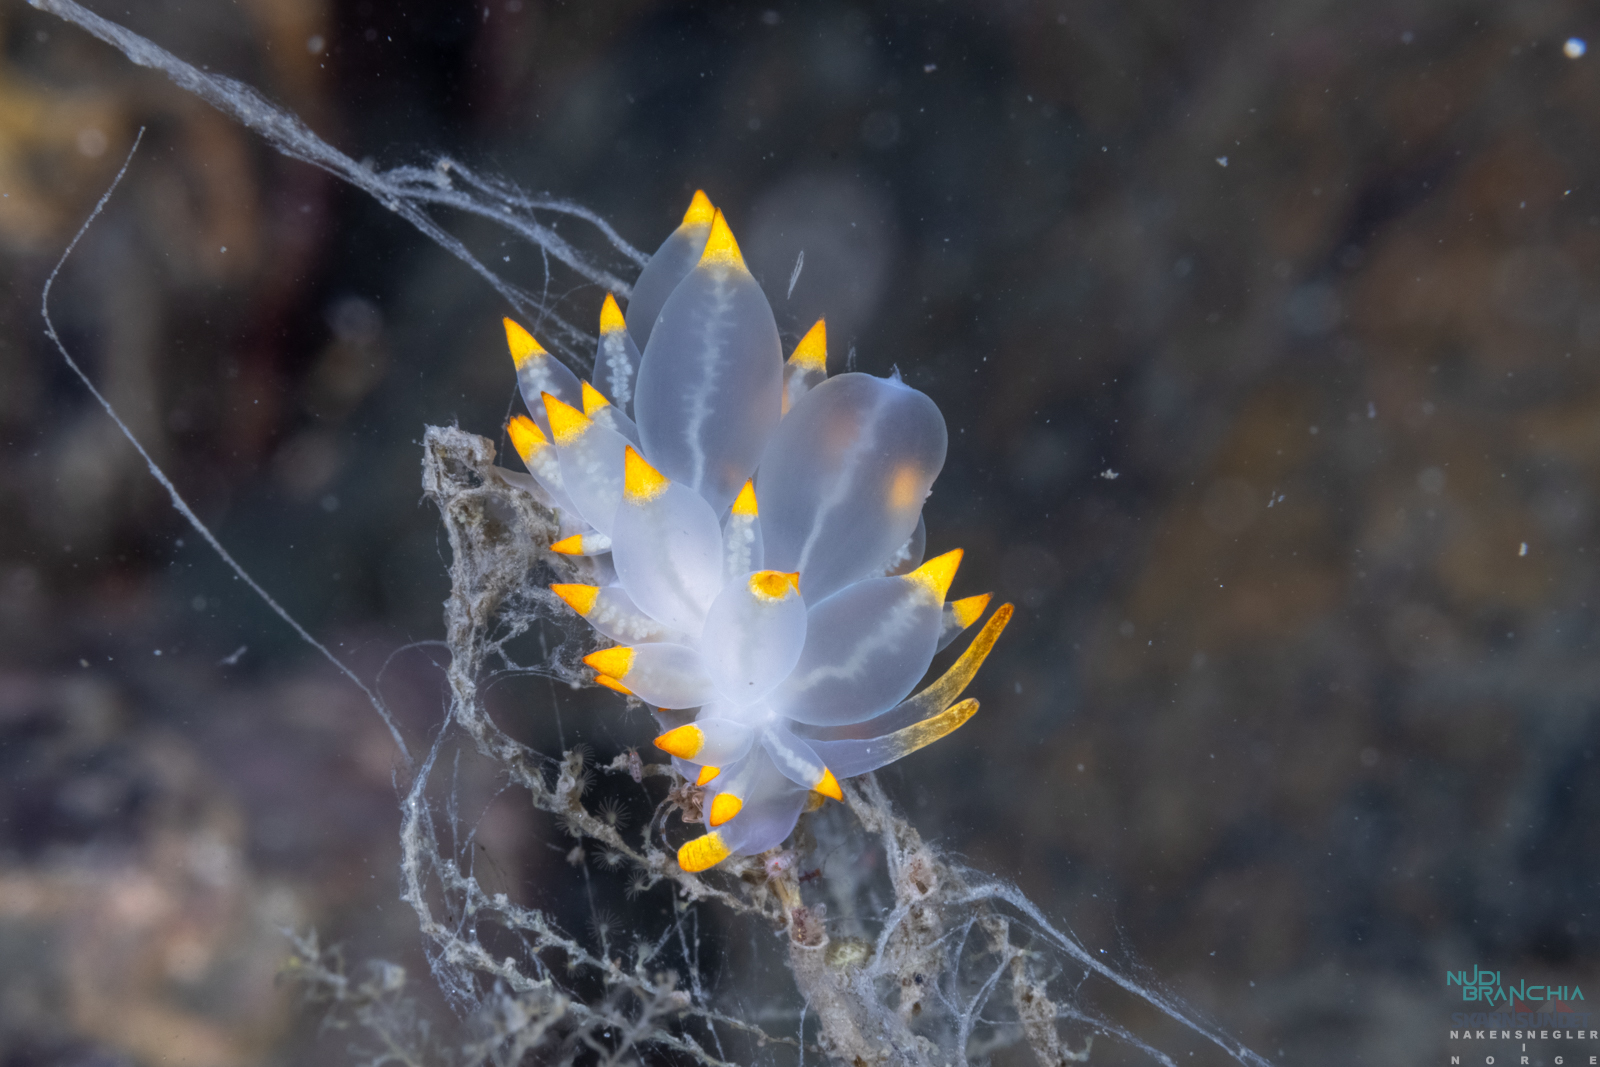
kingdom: Animalia
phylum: Mollusca
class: Gastropoda
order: Nudibranchia
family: Eubranchidae
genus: Amphorina
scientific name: Amphorina farrani
